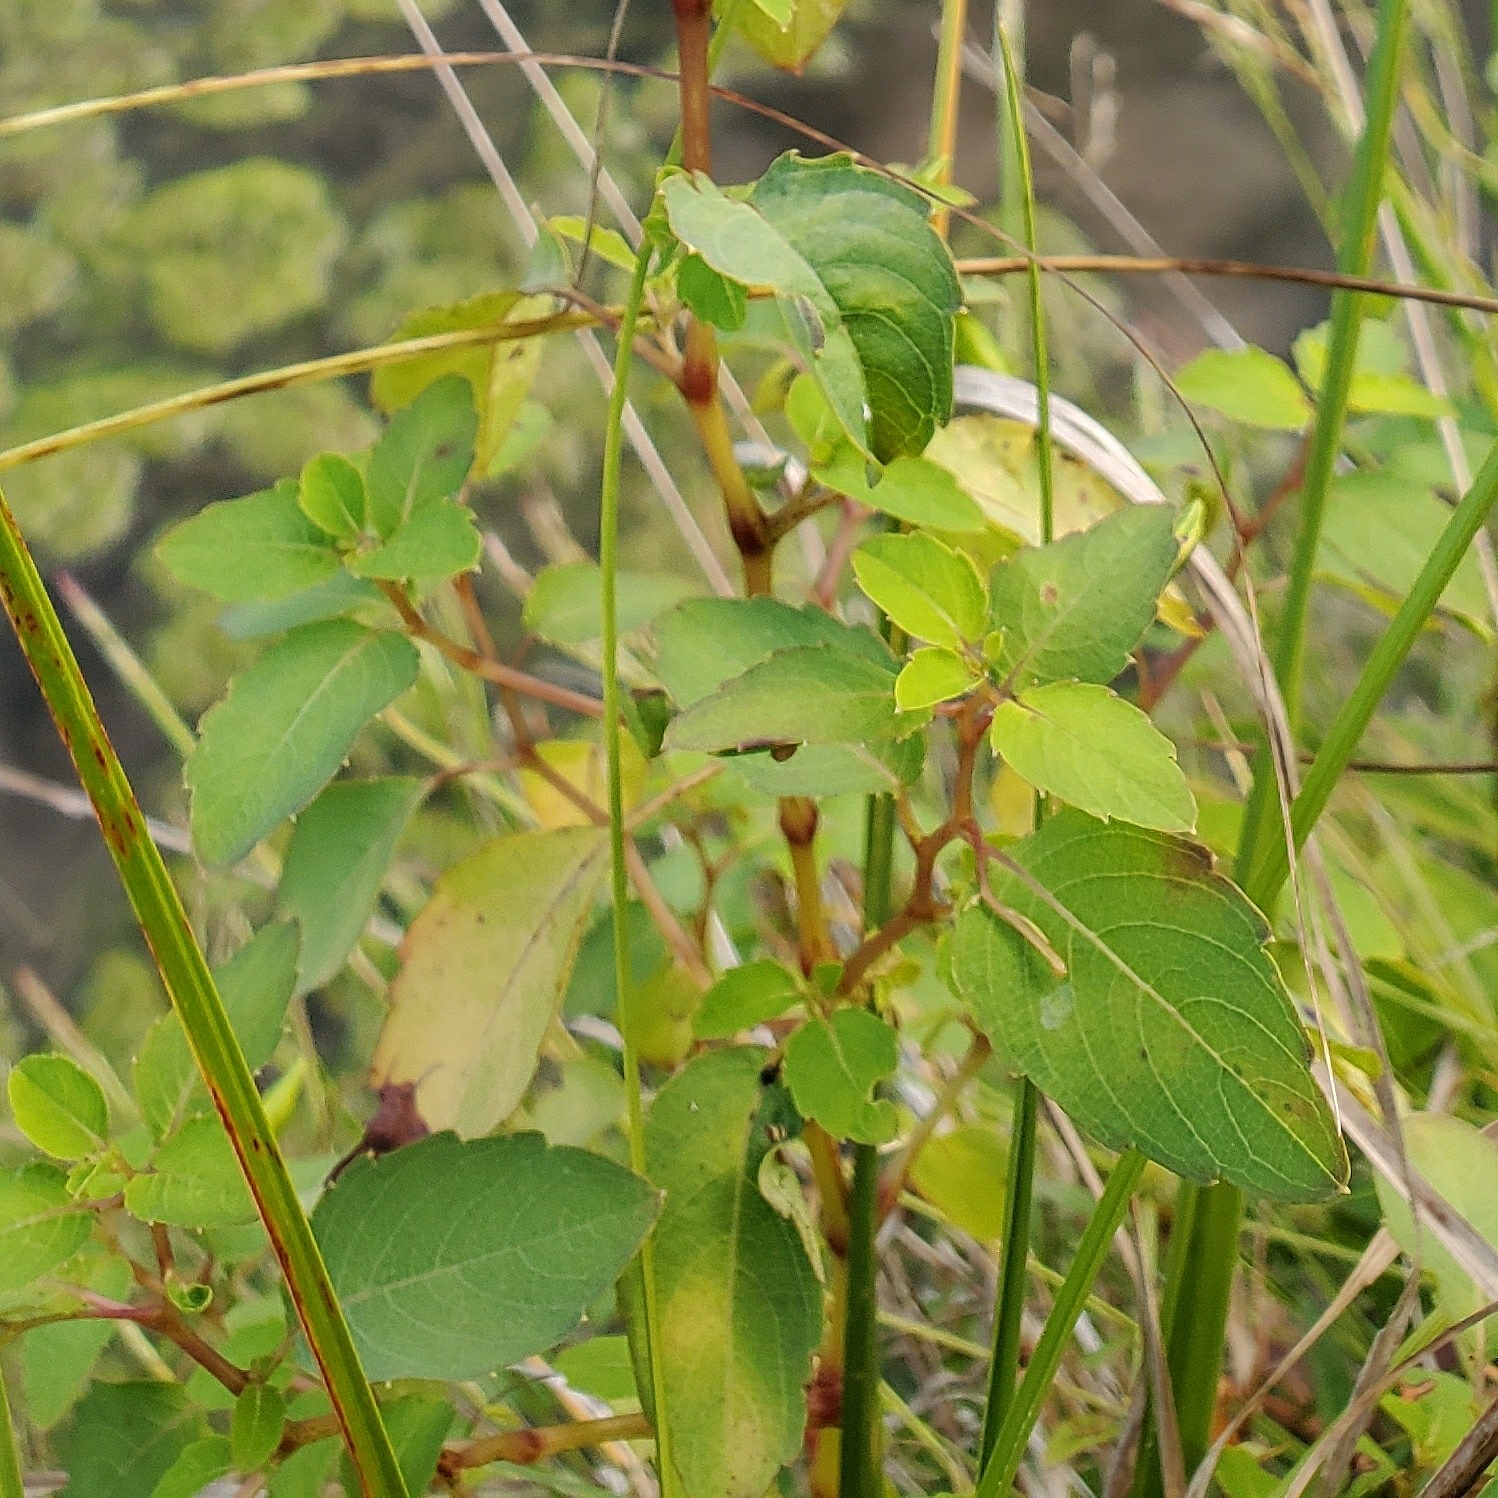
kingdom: Plantae
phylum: Tracheophyta
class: Magnoliopsida
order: Ericales
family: Balsaminaceae
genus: Impatiens
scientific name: Impatiens capensis
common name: Orange balsam
